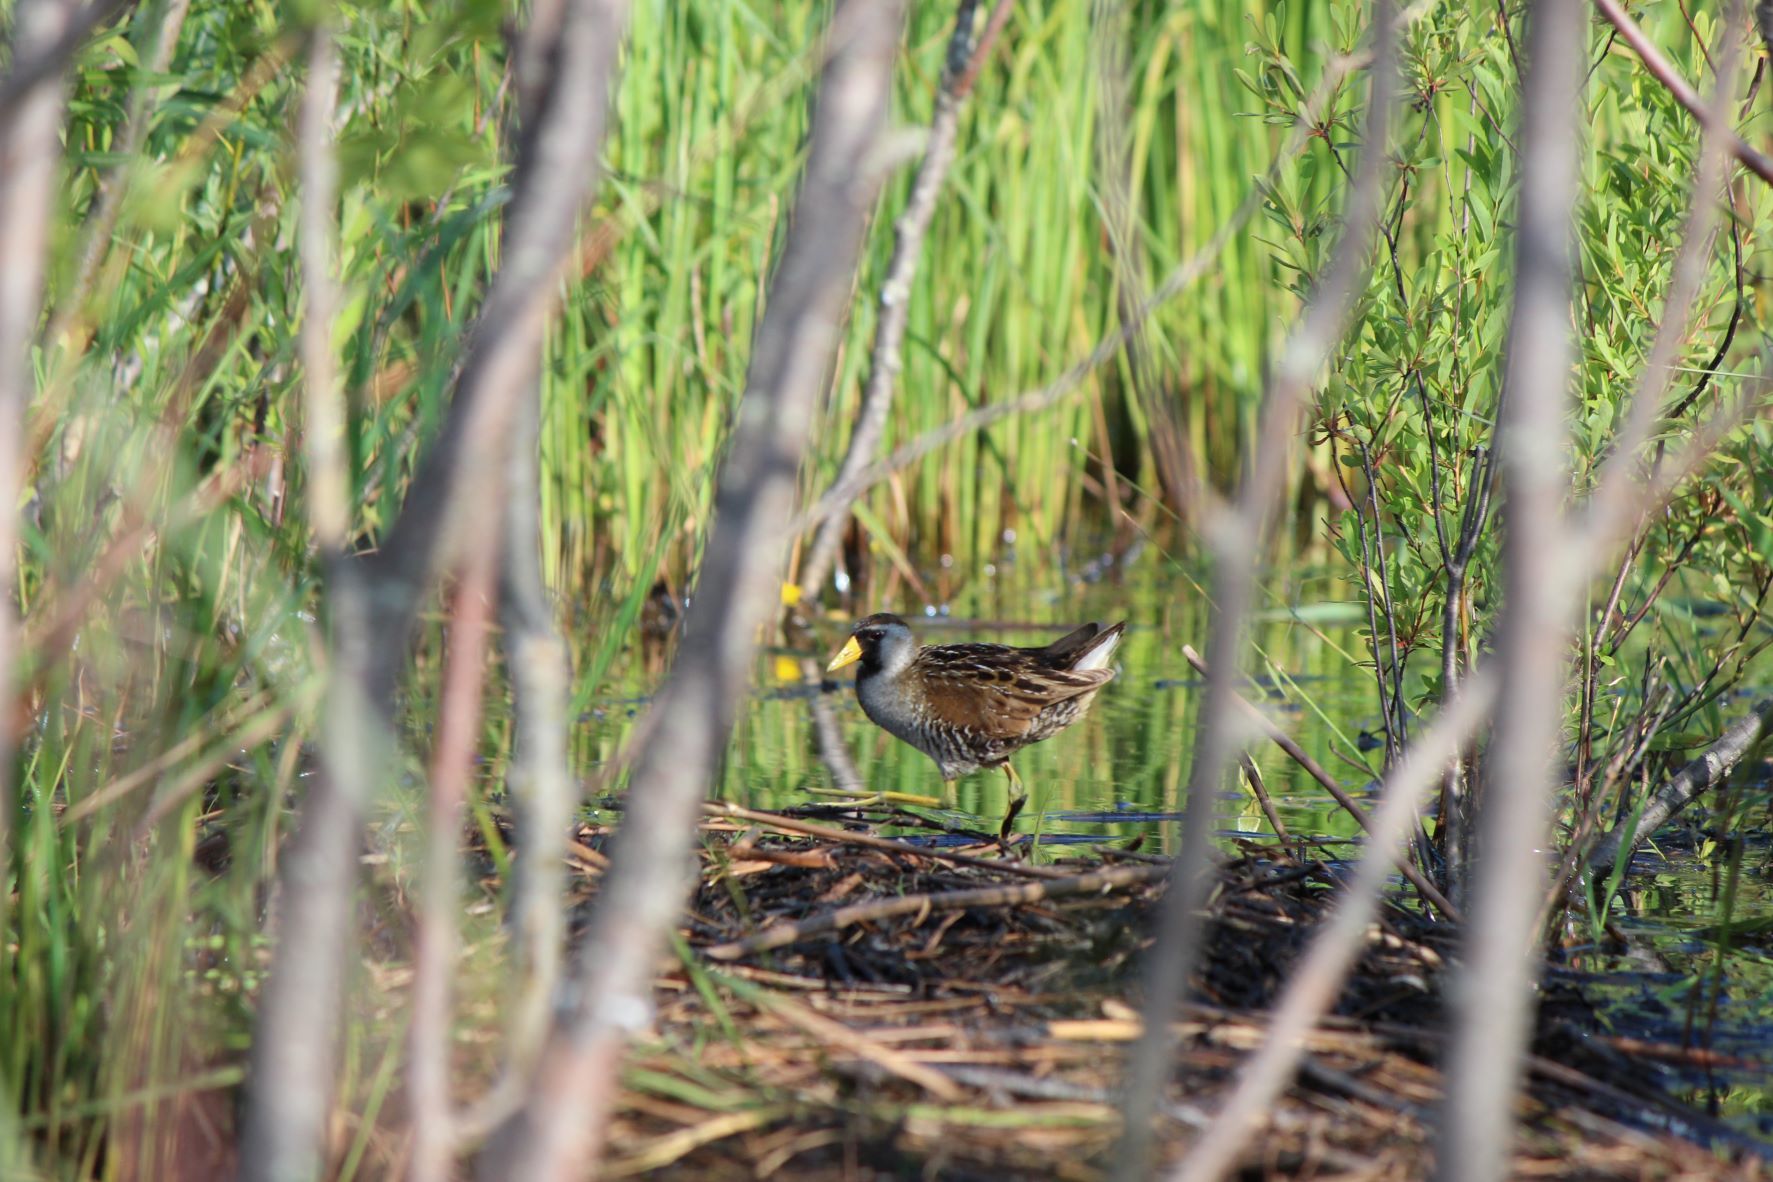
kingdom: Animalia
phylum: Chordata
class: Aves
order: Gruiformes
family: Rallidae
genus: Porzana
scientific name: Porzana carolina
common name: Sora
